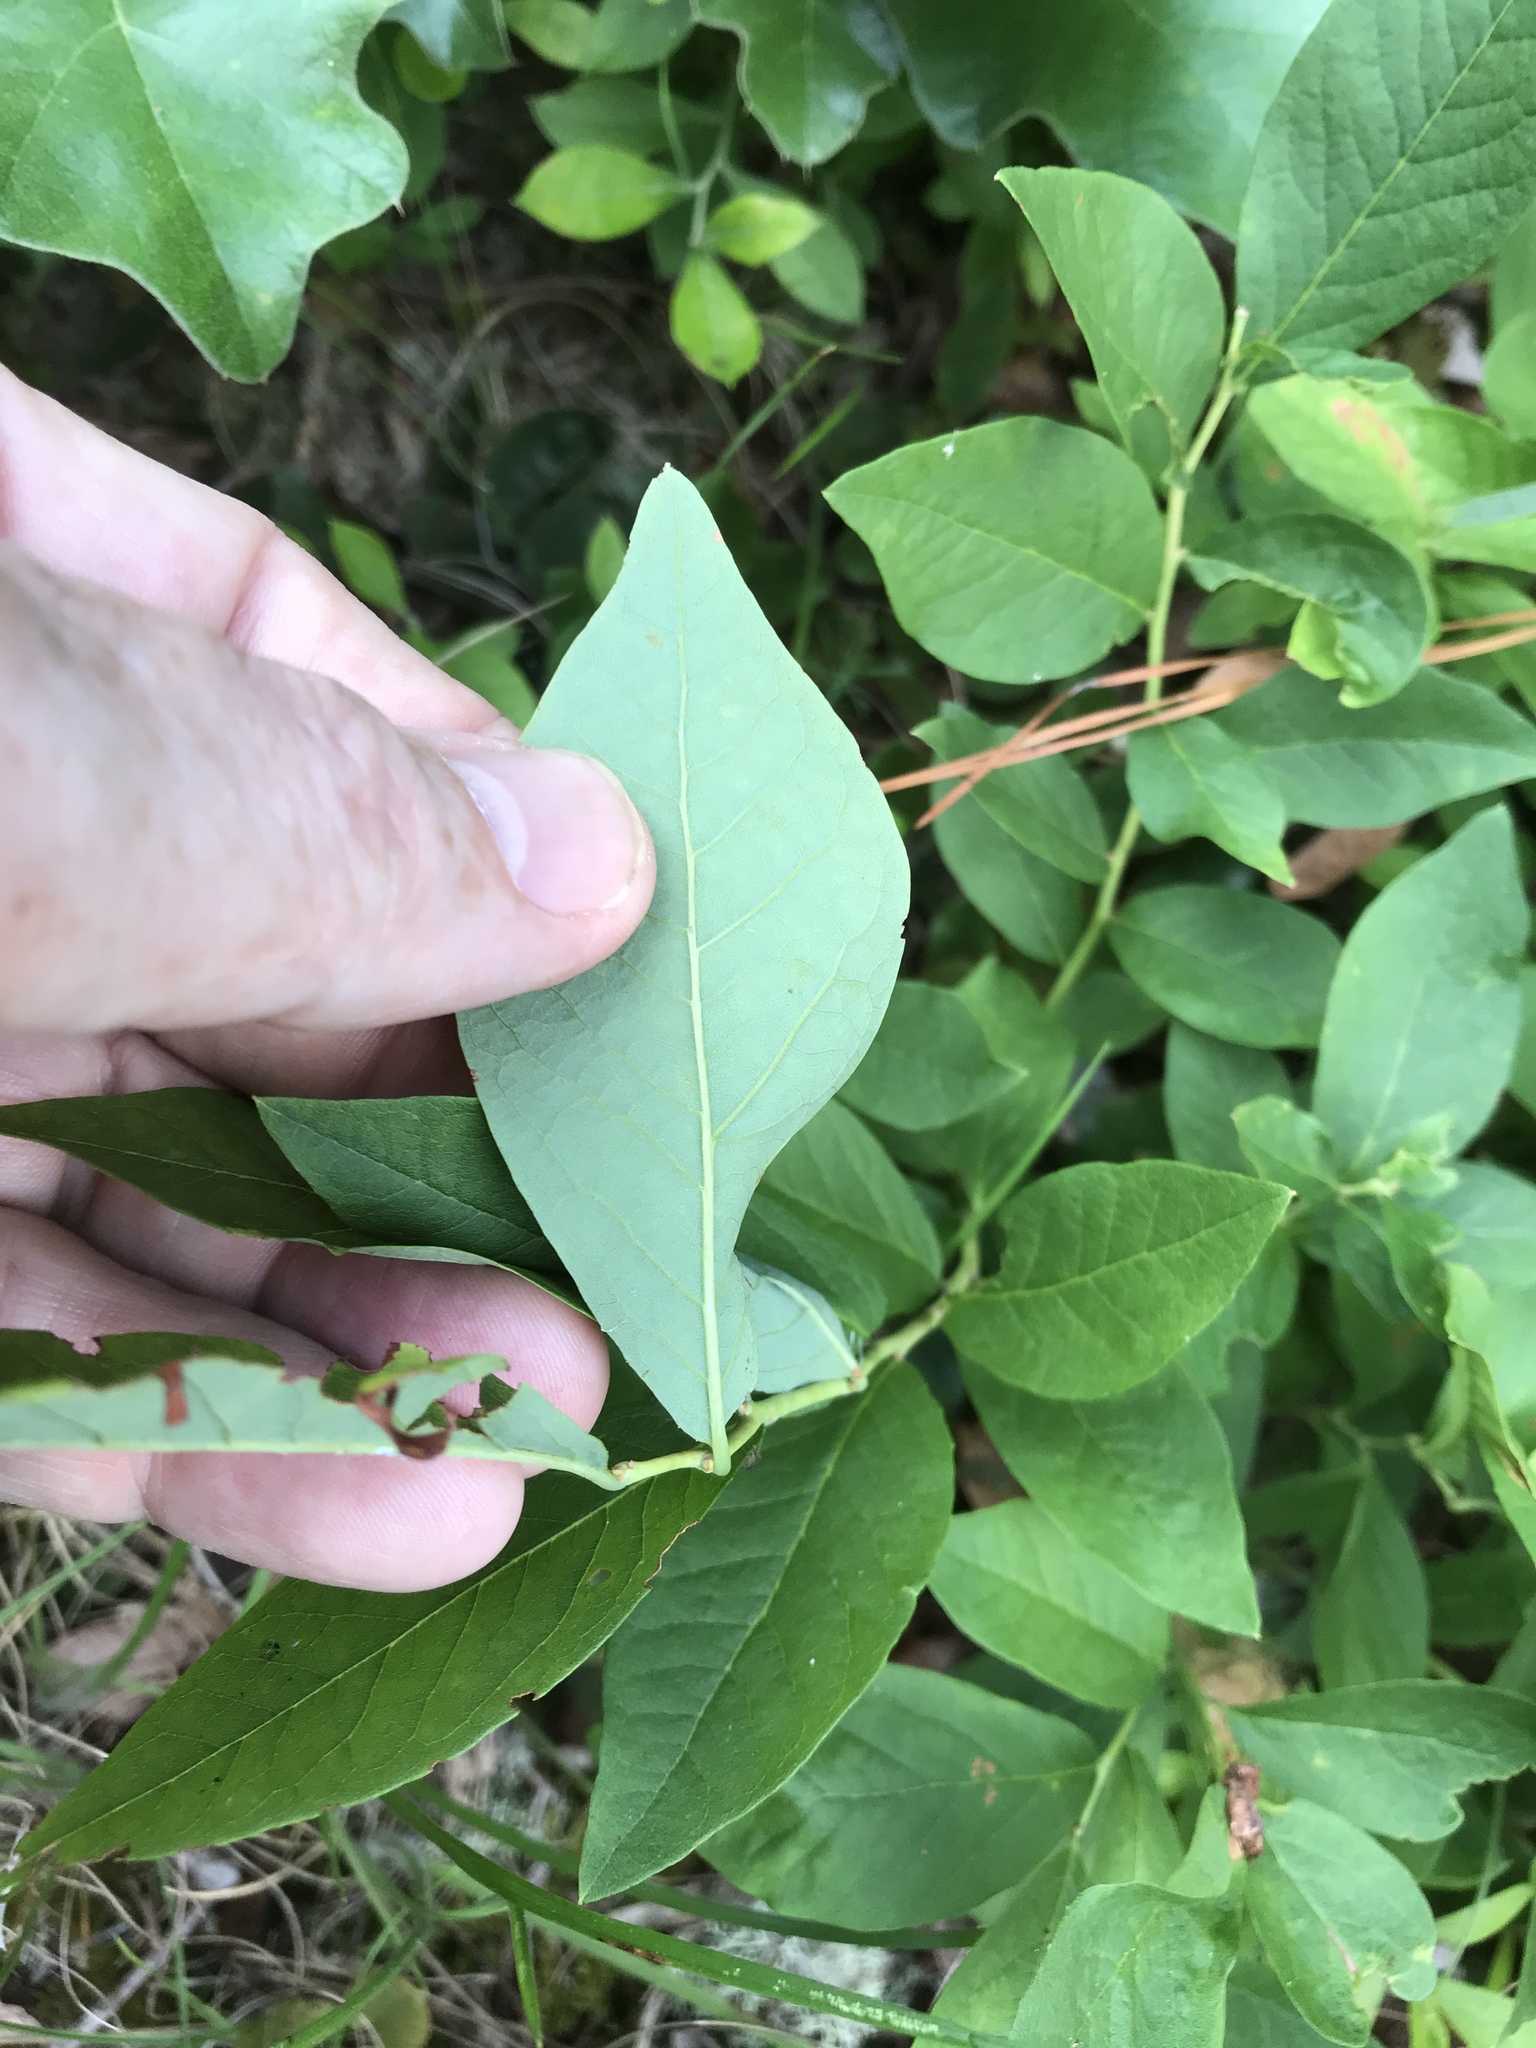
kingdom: Plantae
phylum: Tracheophyta
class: Magnoliopsida
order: Ericales
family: Ericaceae
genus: Vaccinium
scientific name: Vaccinium stamineum
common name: Deerberry
